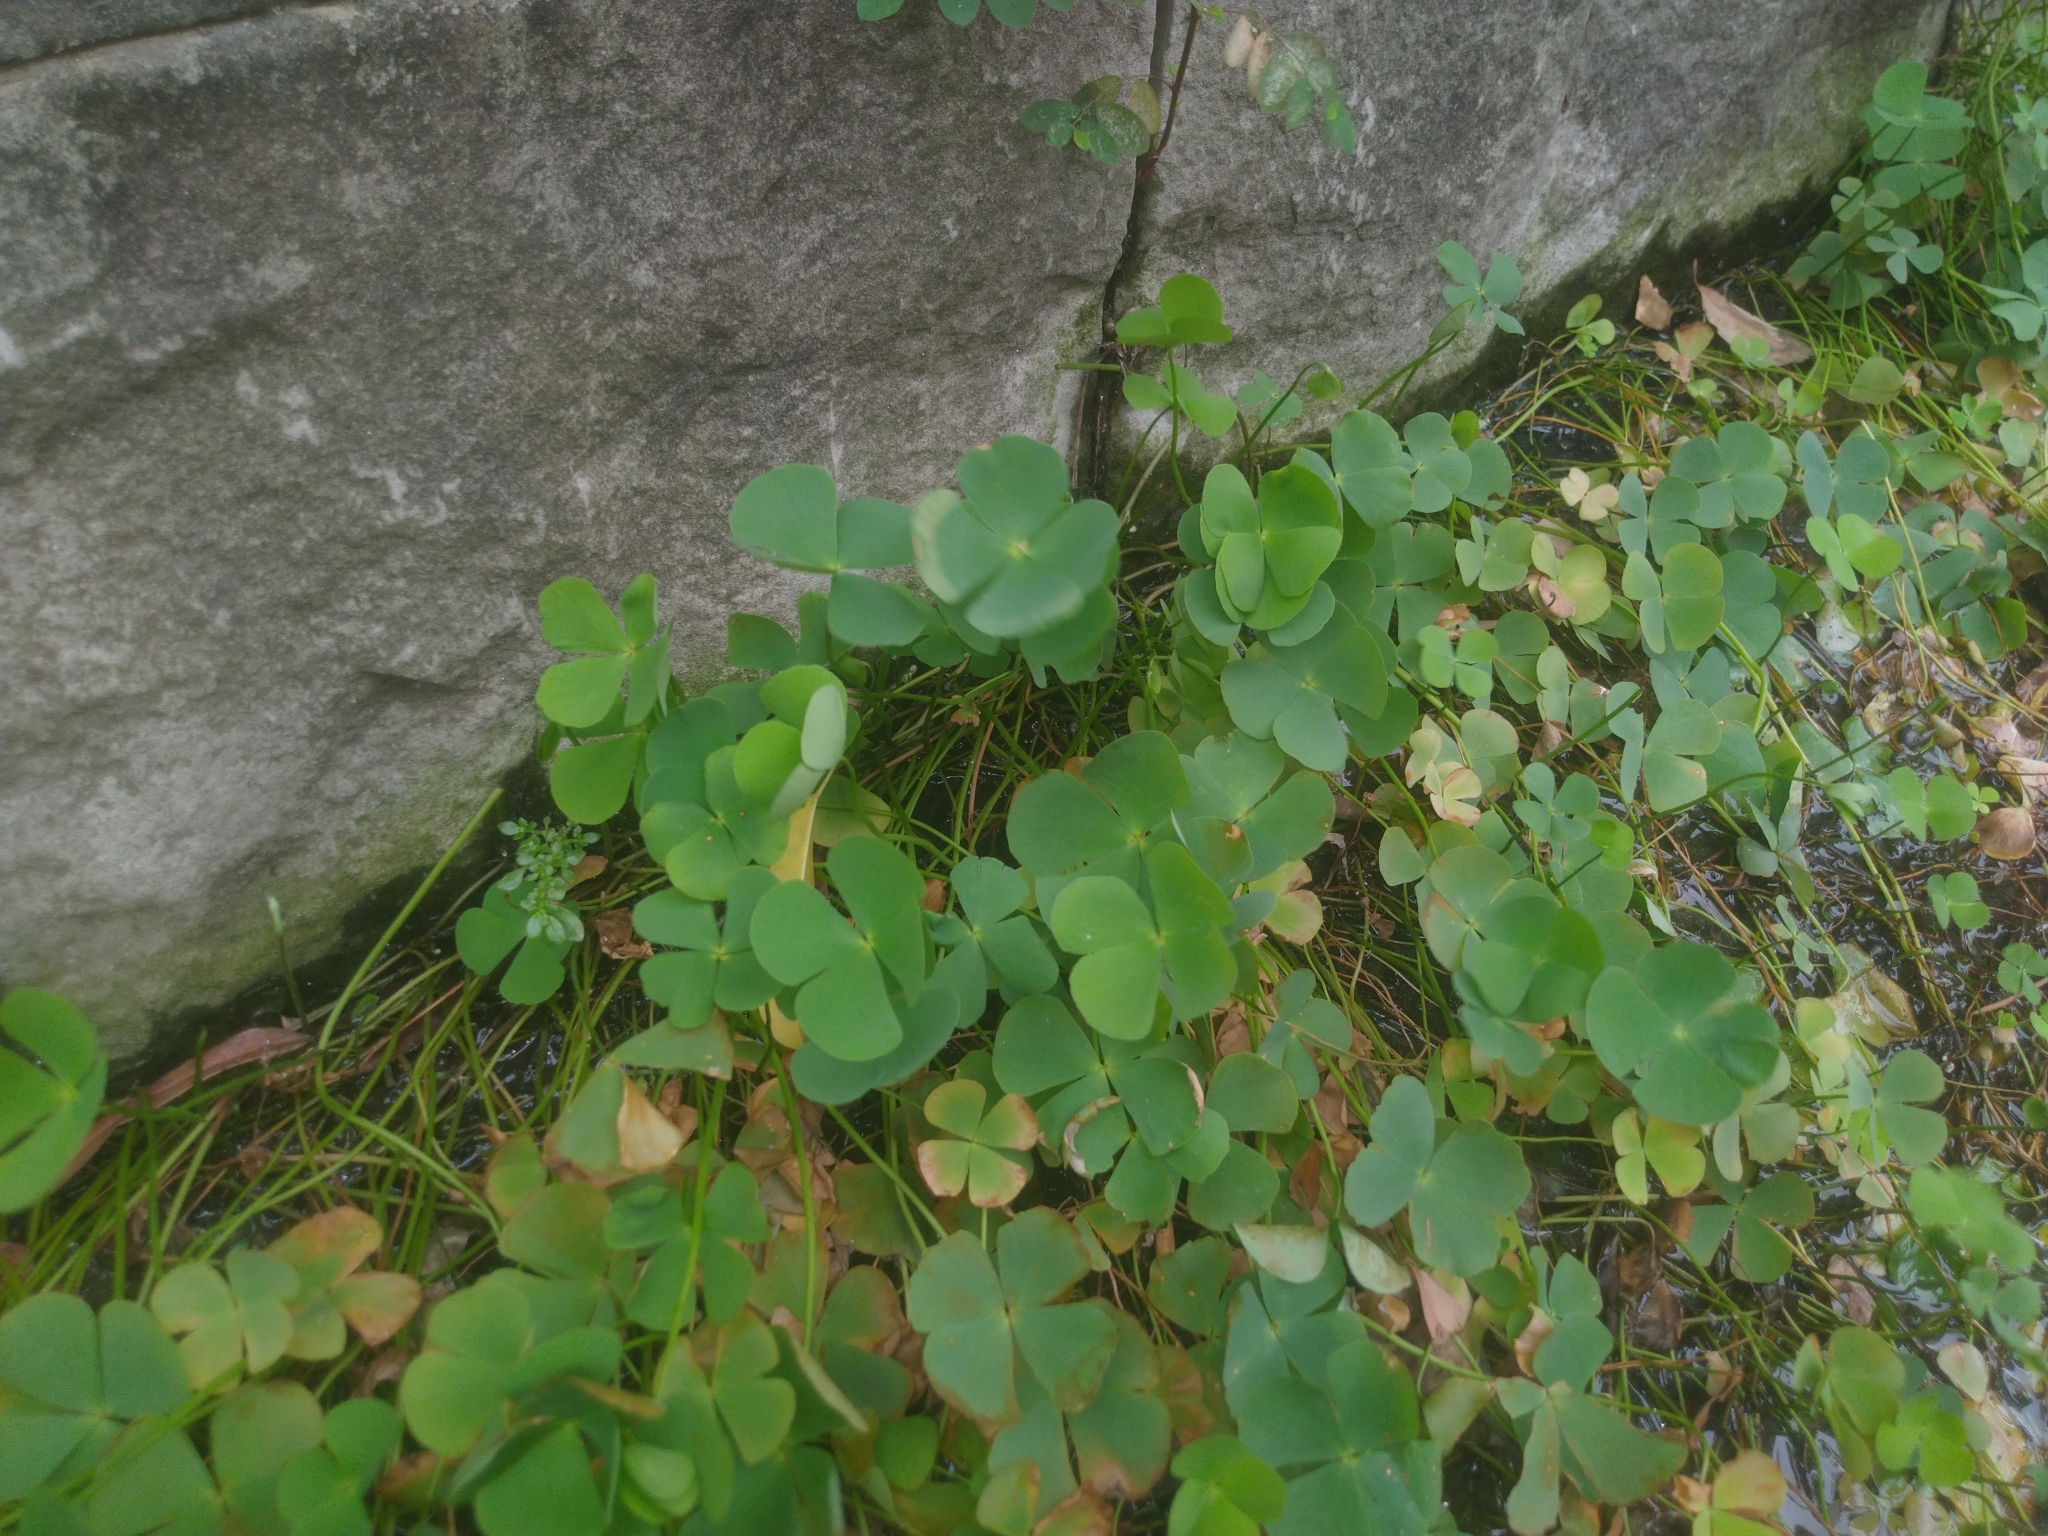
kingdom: Plantae
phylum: Tracheophyta
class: Polypodiopsida
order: Salviniales
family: Marsileaceae
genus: Marsilea
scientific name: Marsilea minuta
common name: Dwarf waterclover
